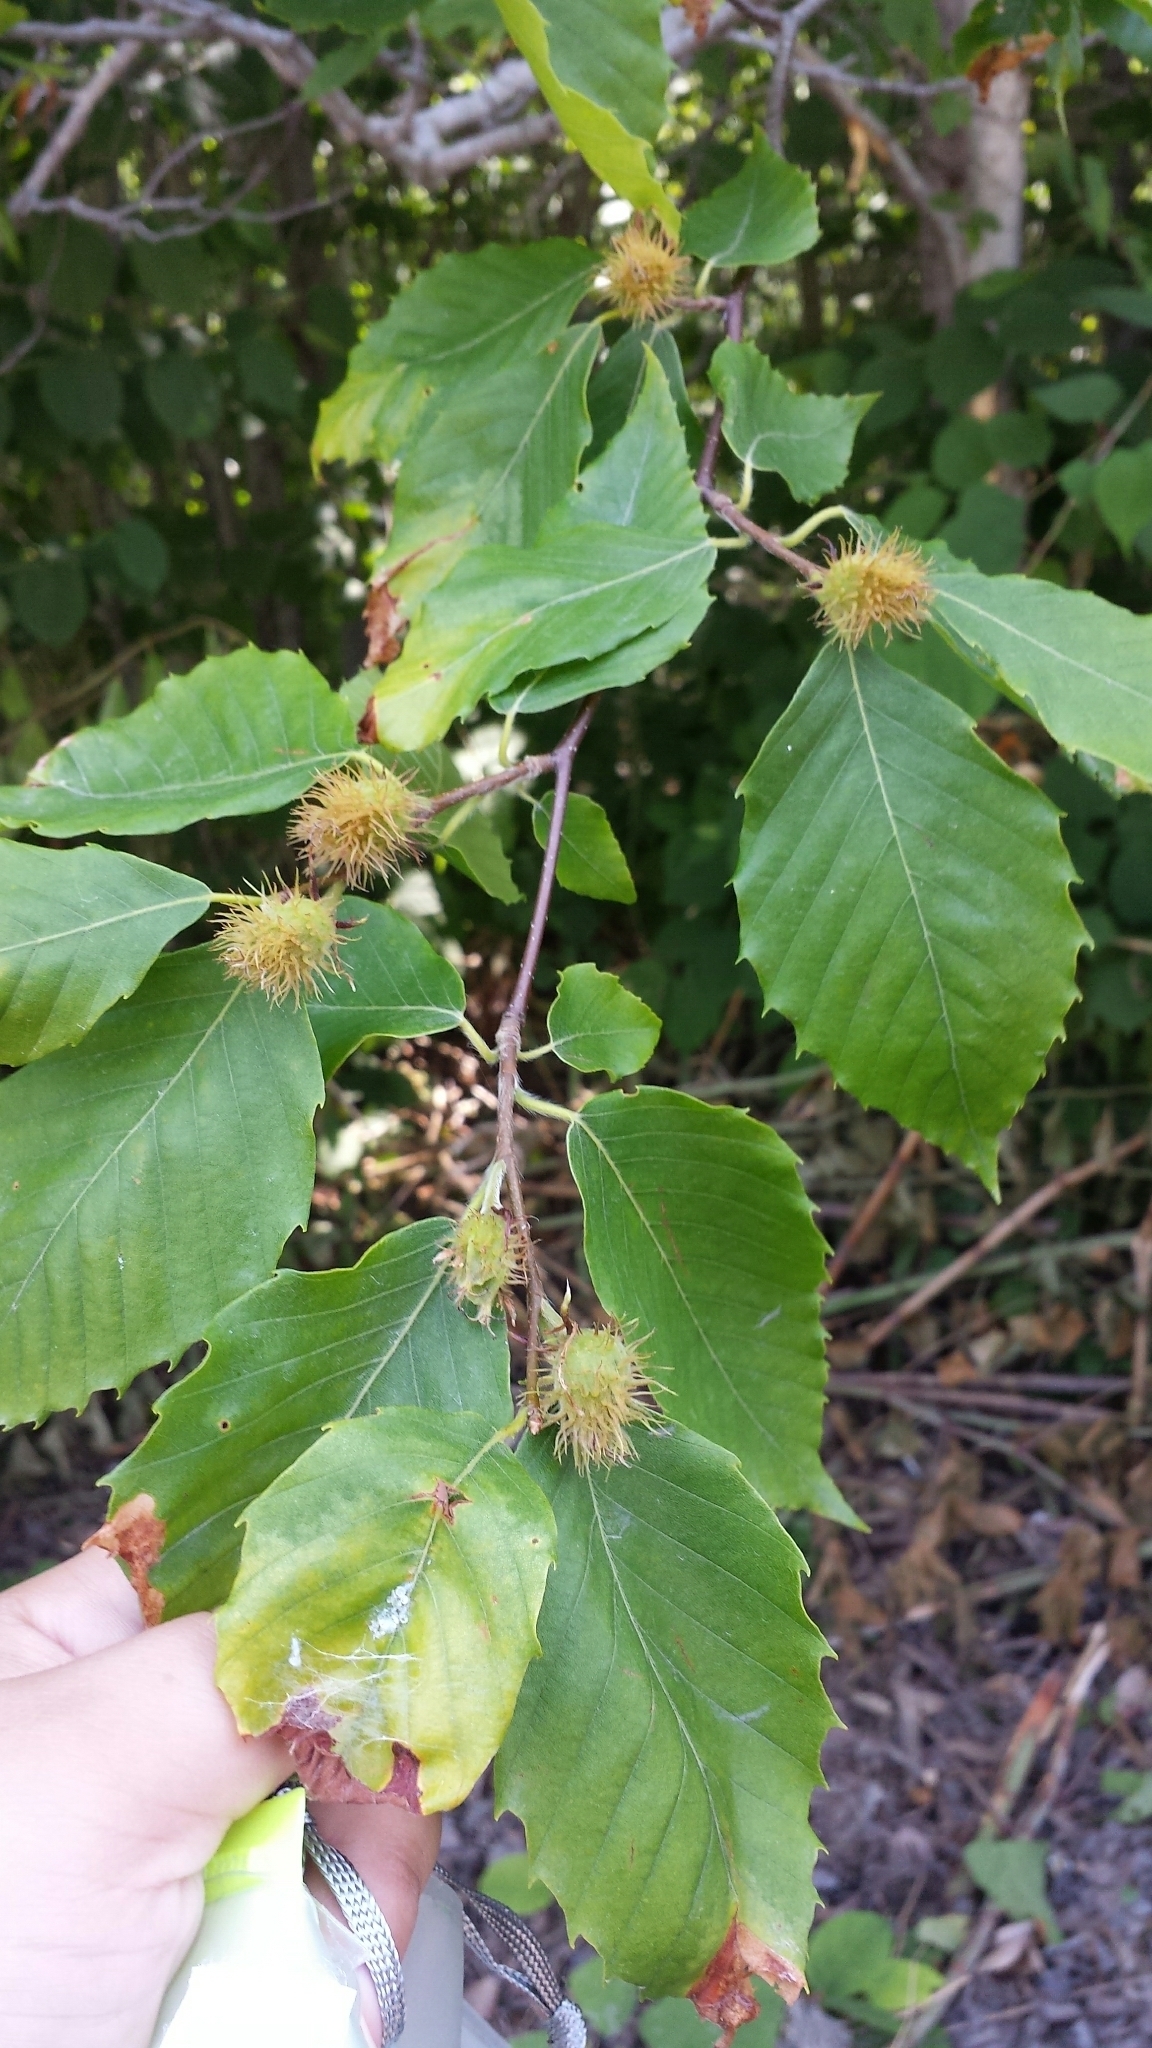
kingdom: Plantae
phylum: Tracheophyta
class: Magnoliopsida
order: Fagales
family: Fagaceae
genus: Fagus
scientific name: Fagus grandifolia
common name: American beech
